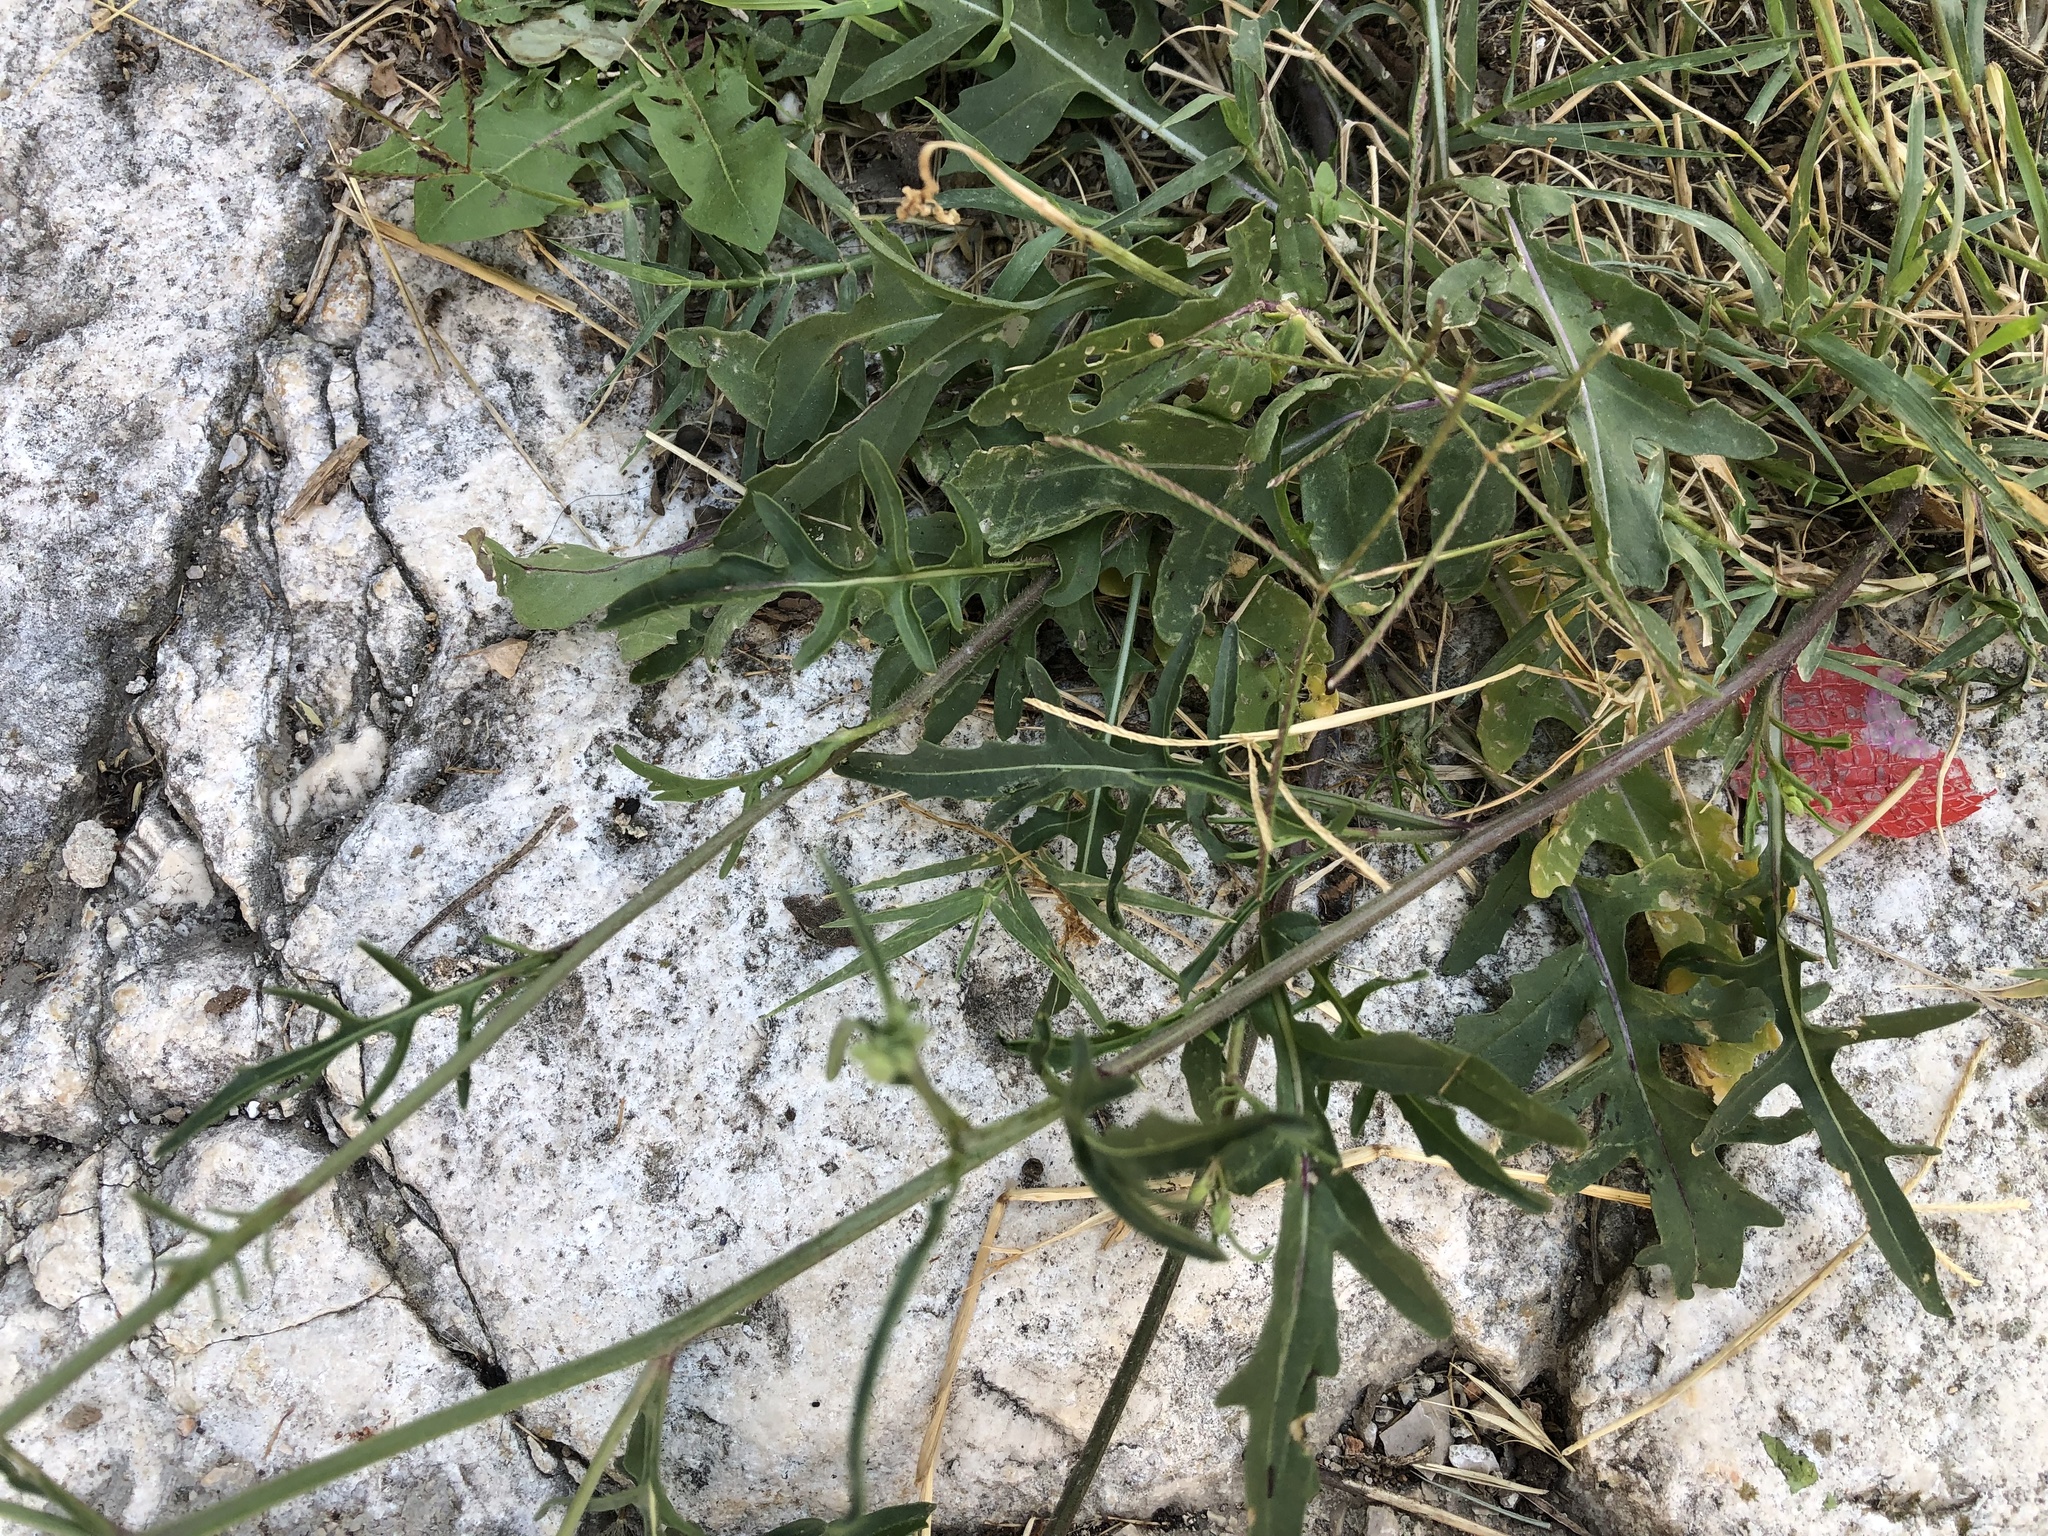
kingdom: Plantae
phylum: Tracheophyta
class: Magnoliopsida
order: Brassicales
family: Brassicaceae
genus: Diplotaxis
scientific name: Diplotaxis tenuifolia
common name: Perennial wall-rocket
